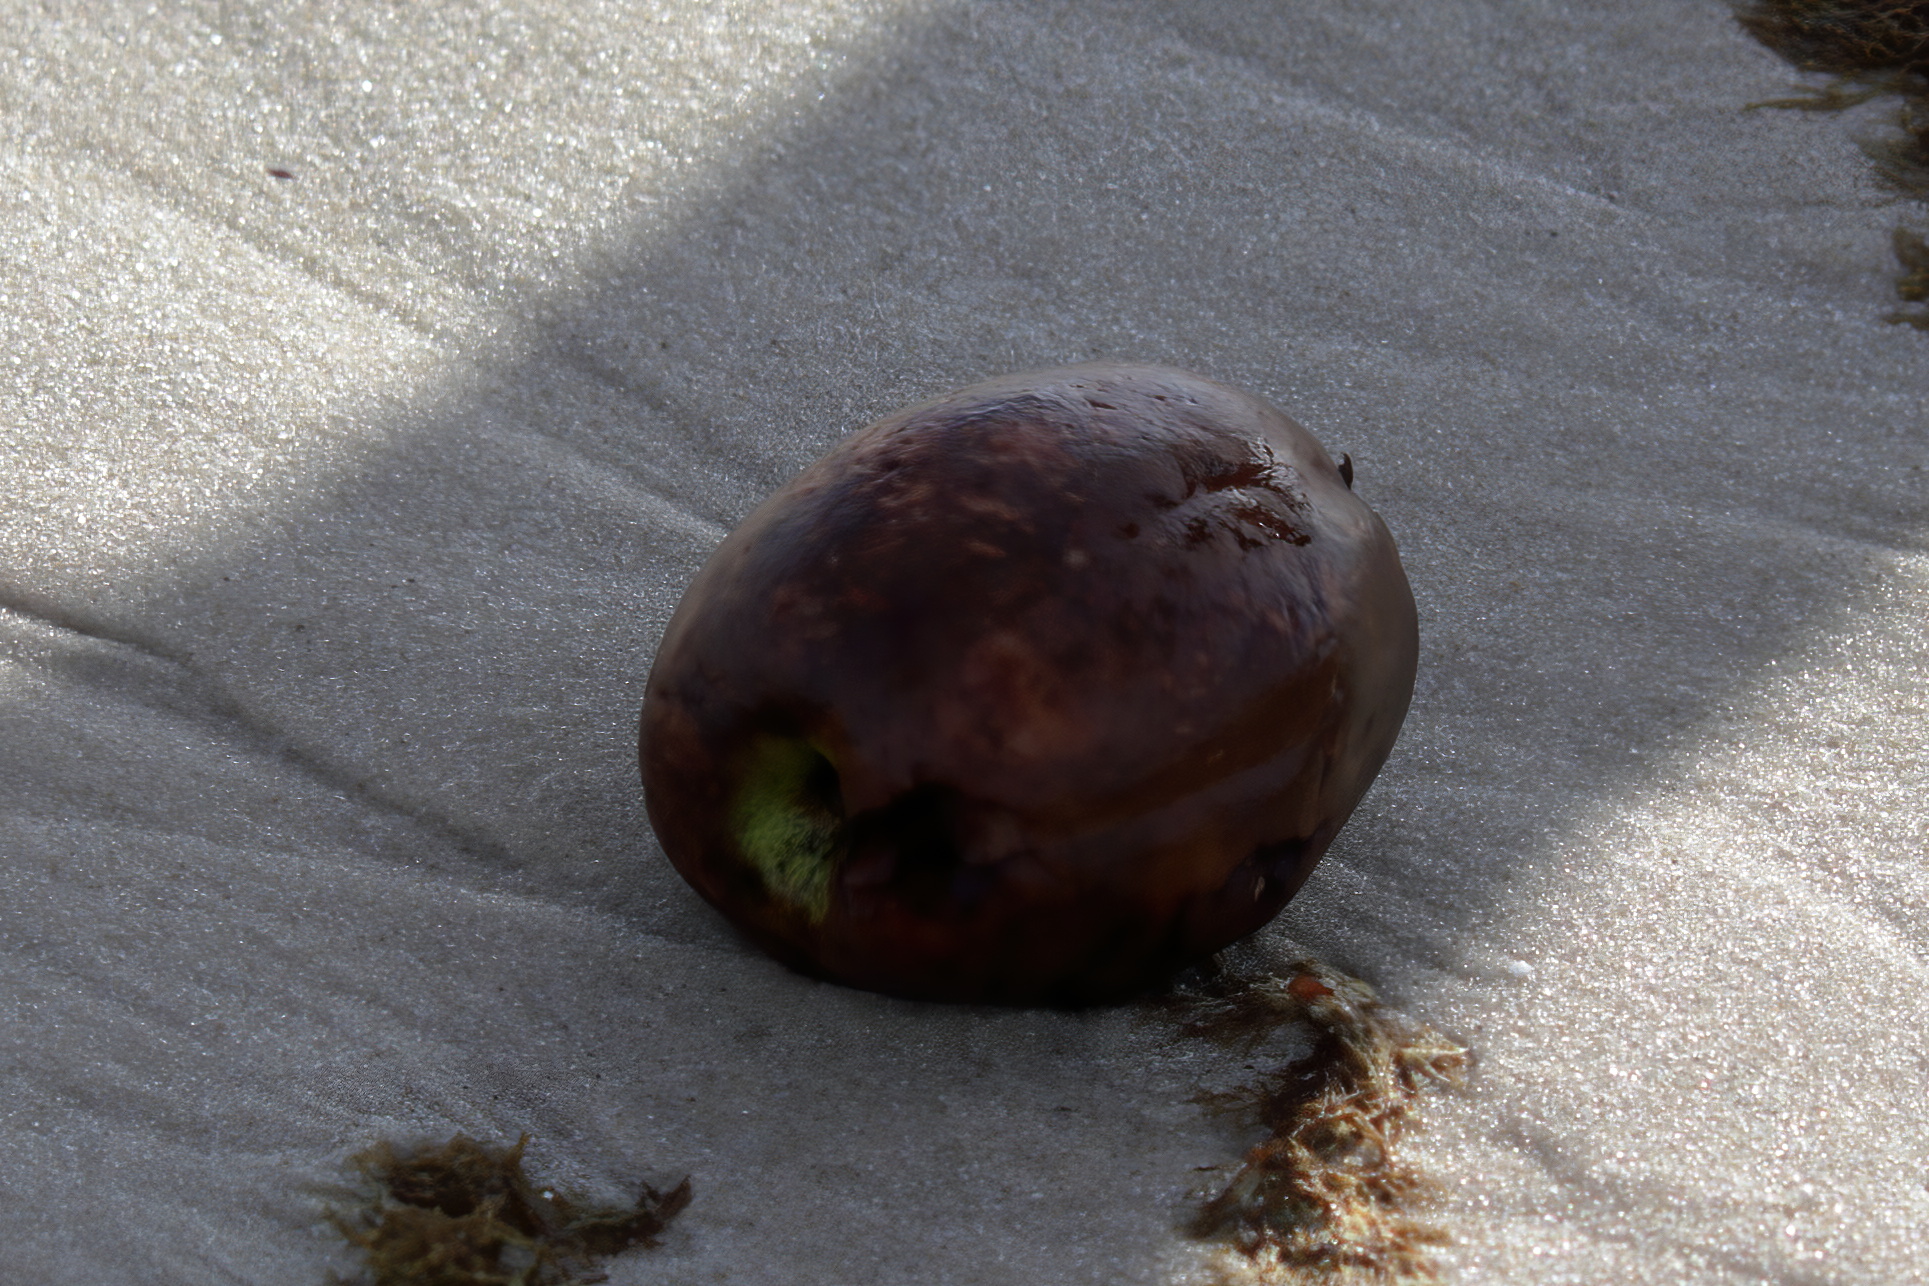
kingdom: Plantae
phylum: Tracheophyta
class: Liliopsida
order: Arecales
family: Arecaceae
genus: Cocos
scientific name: Cocos nucifera
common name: Coconut palm
